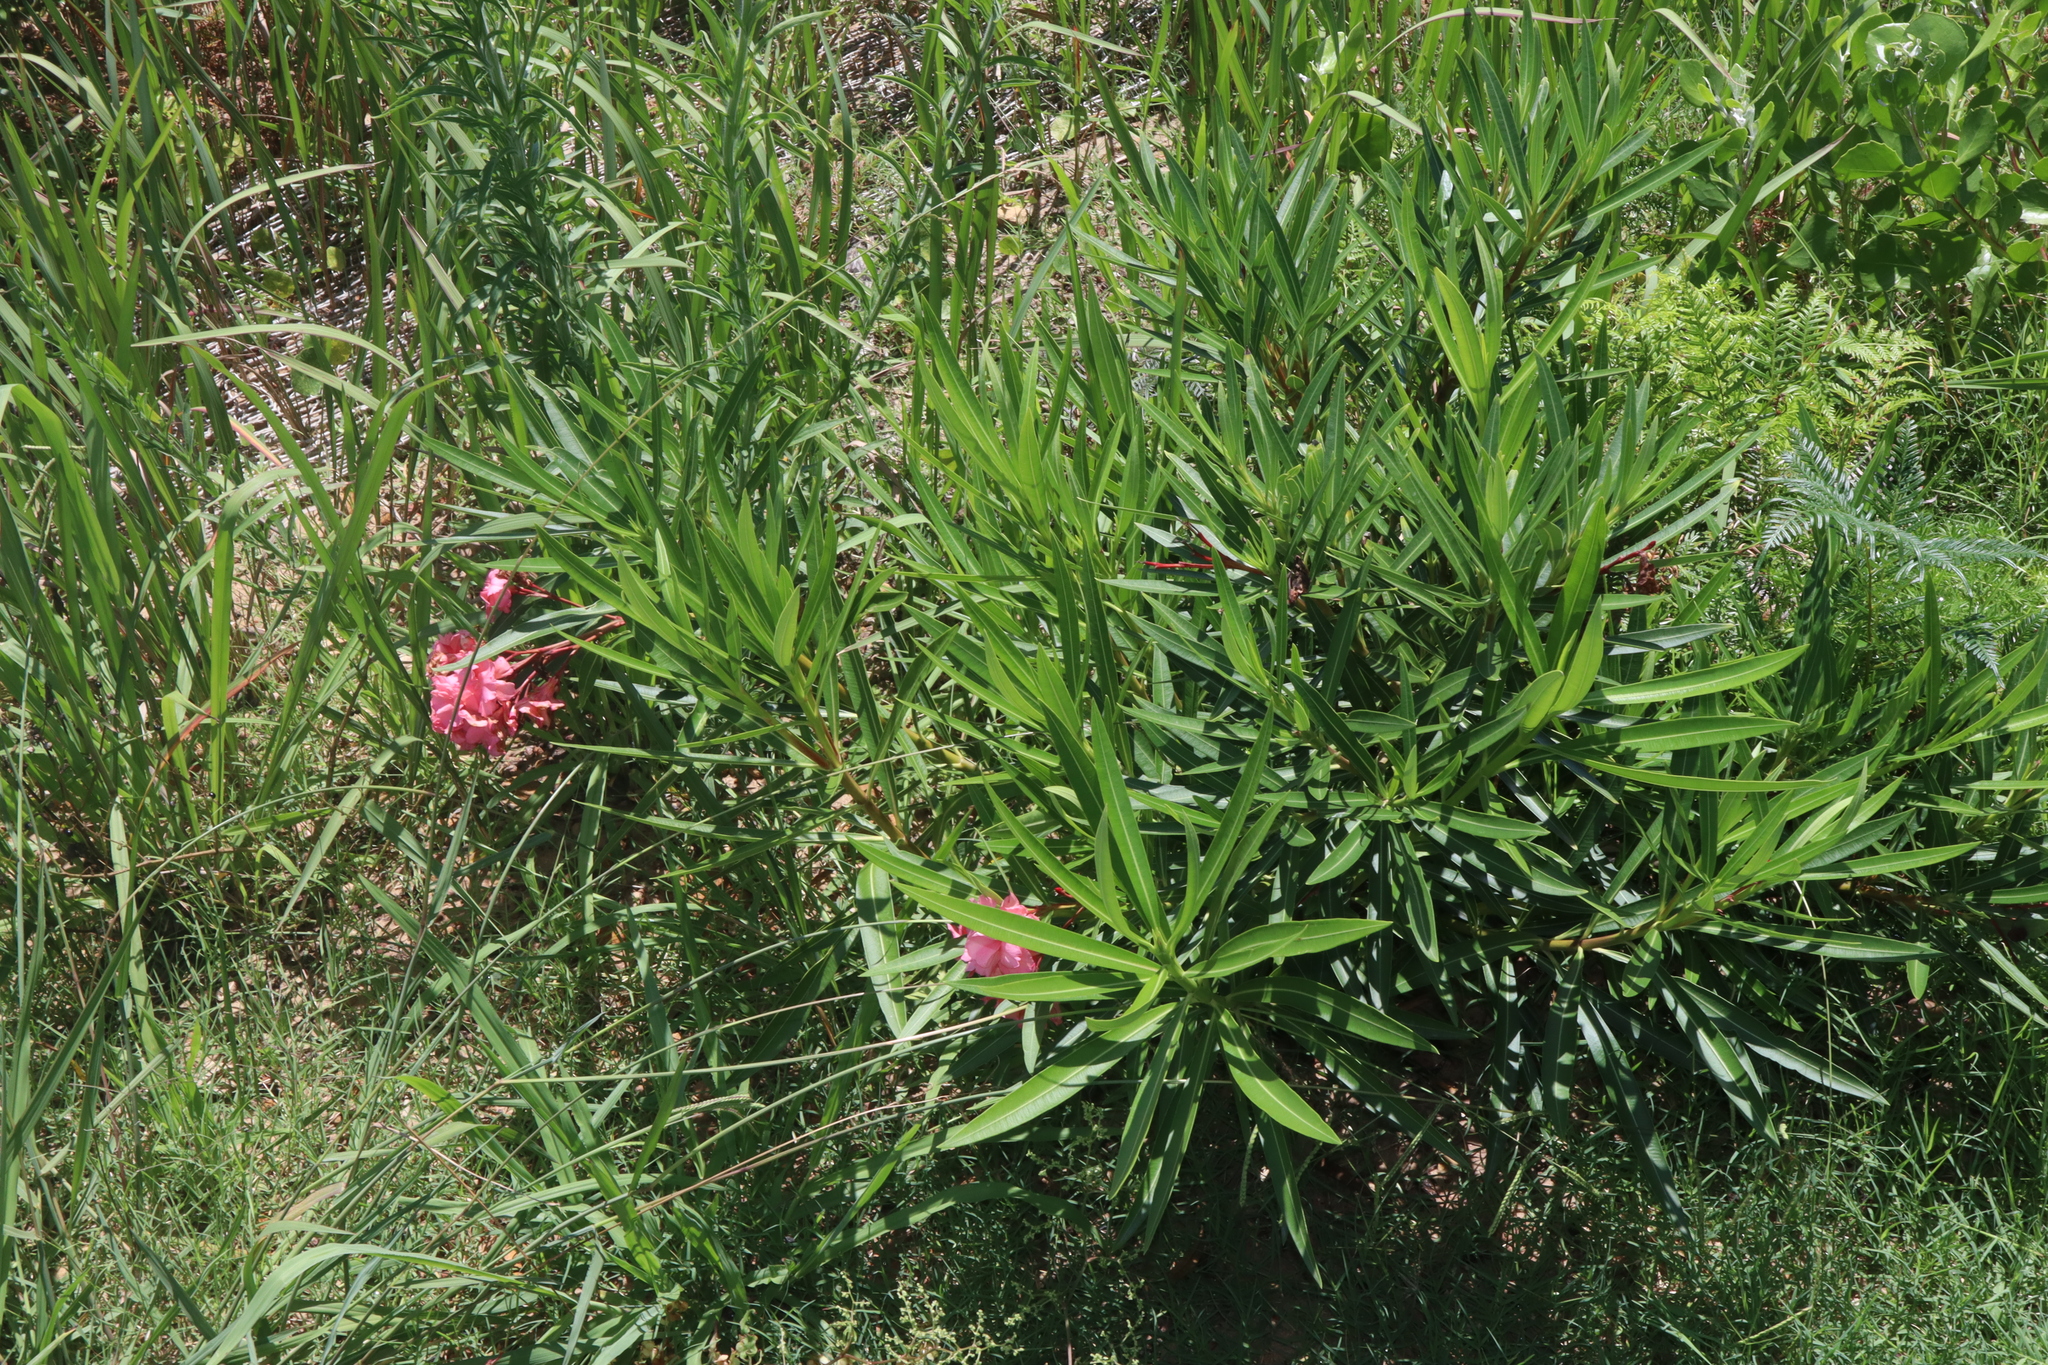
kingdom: Plantae
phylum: Tracheophyta
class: Magnoliopsida
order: Gentianales
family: Apocynaceae
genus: Nerium
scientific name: Nerium oleander
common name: Oleander
